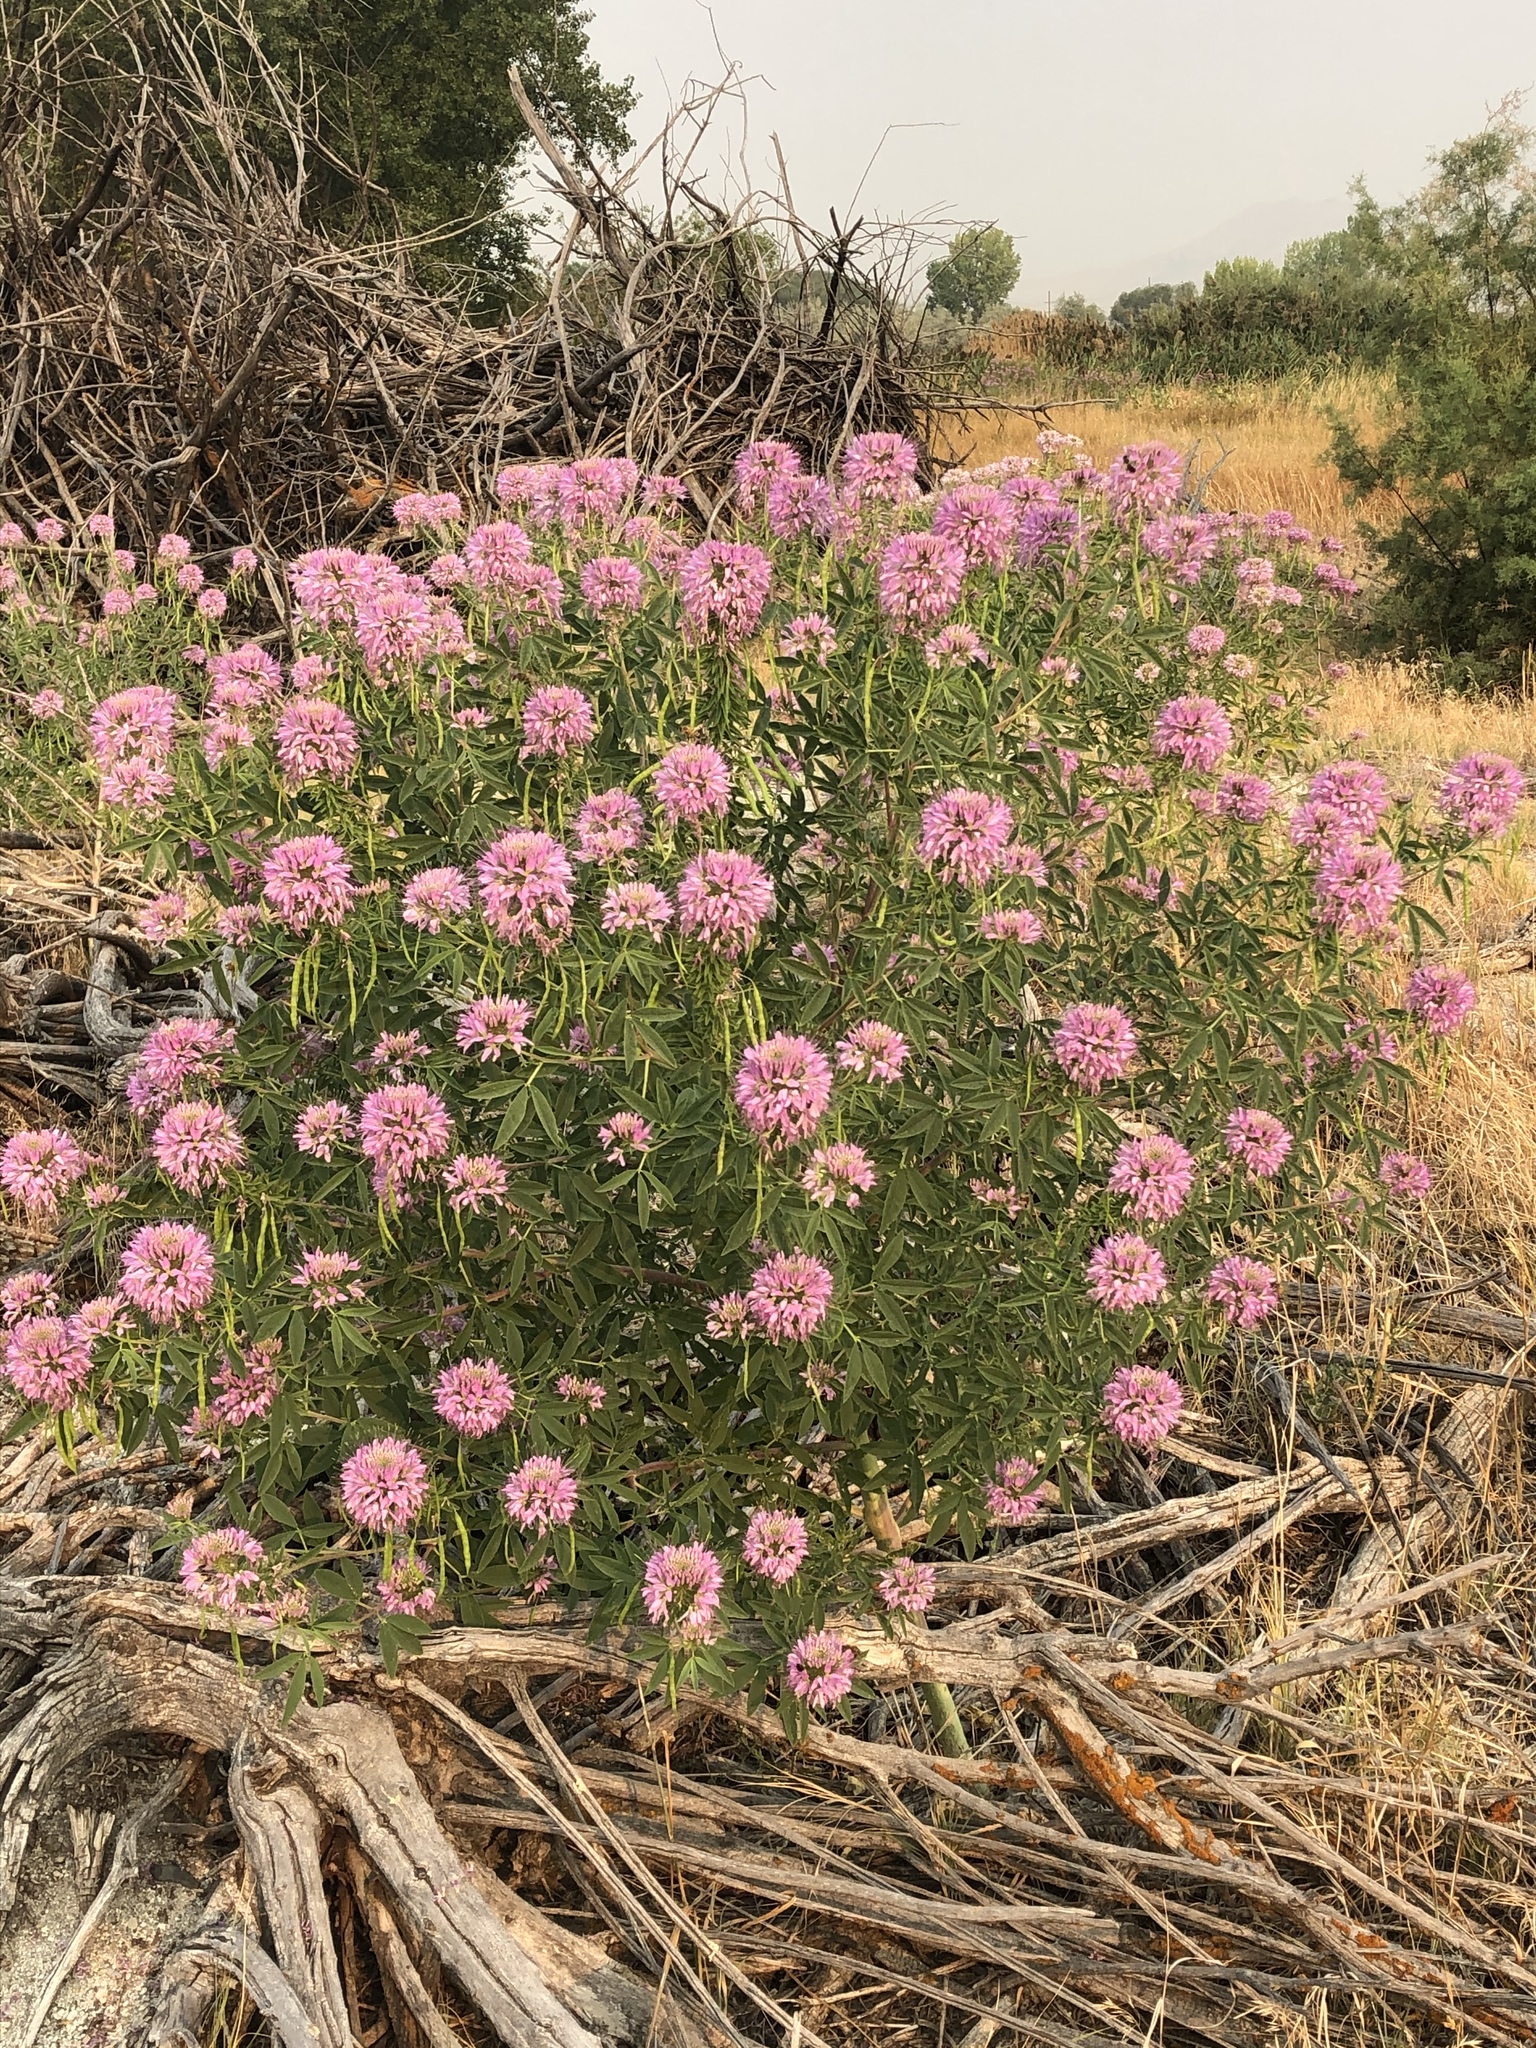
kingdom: Plantae
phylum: Tracheophyta
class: Magnoliopsida
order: Brassicales
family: Cleomaceae
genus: Cleomella
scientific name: Cleomella serrulata
